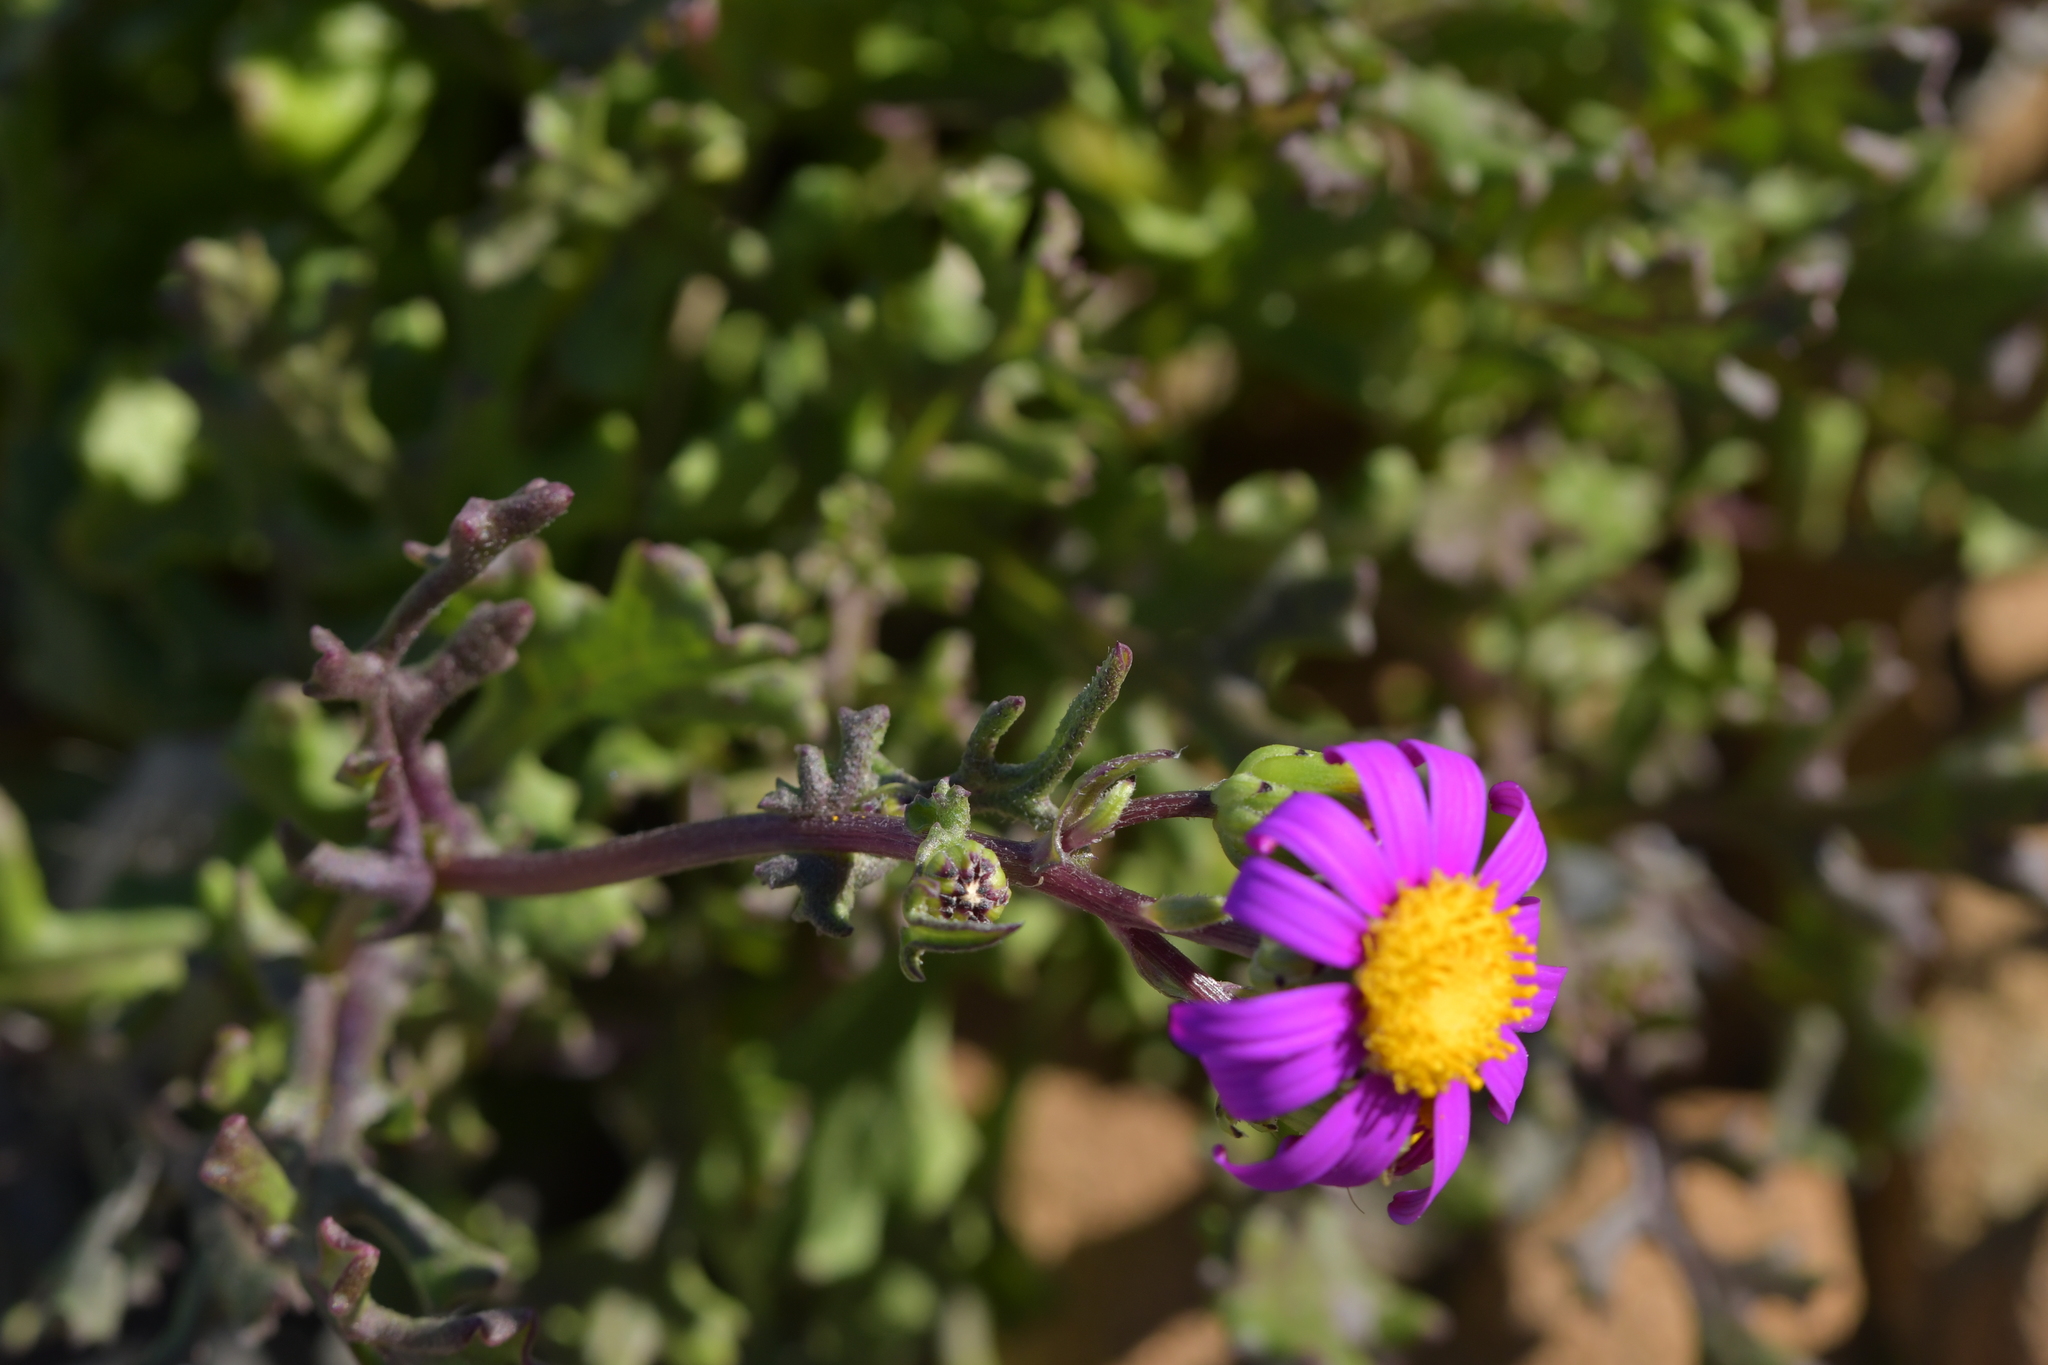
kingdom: Plantae
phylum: Tracheophyta
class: Magnoliopsida
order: Asterales
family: Asteraceae
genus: Senecio
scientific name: Senecio elegans
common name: Purple groundsel
